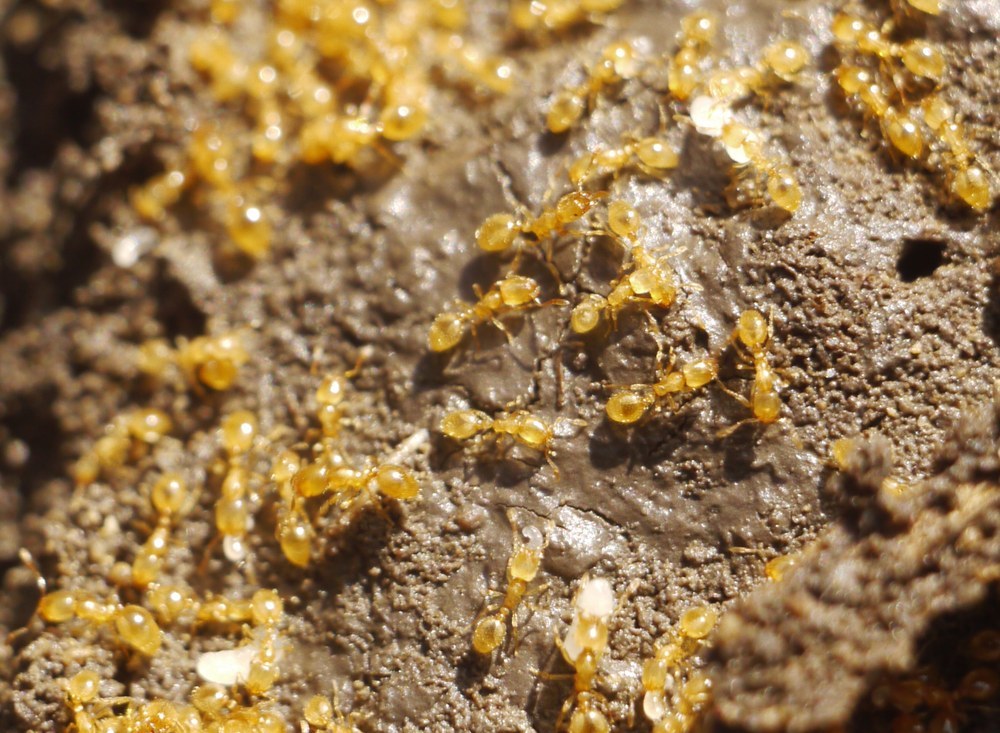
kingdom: Animalia
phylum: Arthropoda
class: Insecta
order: Hymenoptera
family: Formicidae
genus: Solenopsis
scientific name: Solenopsis fugax
